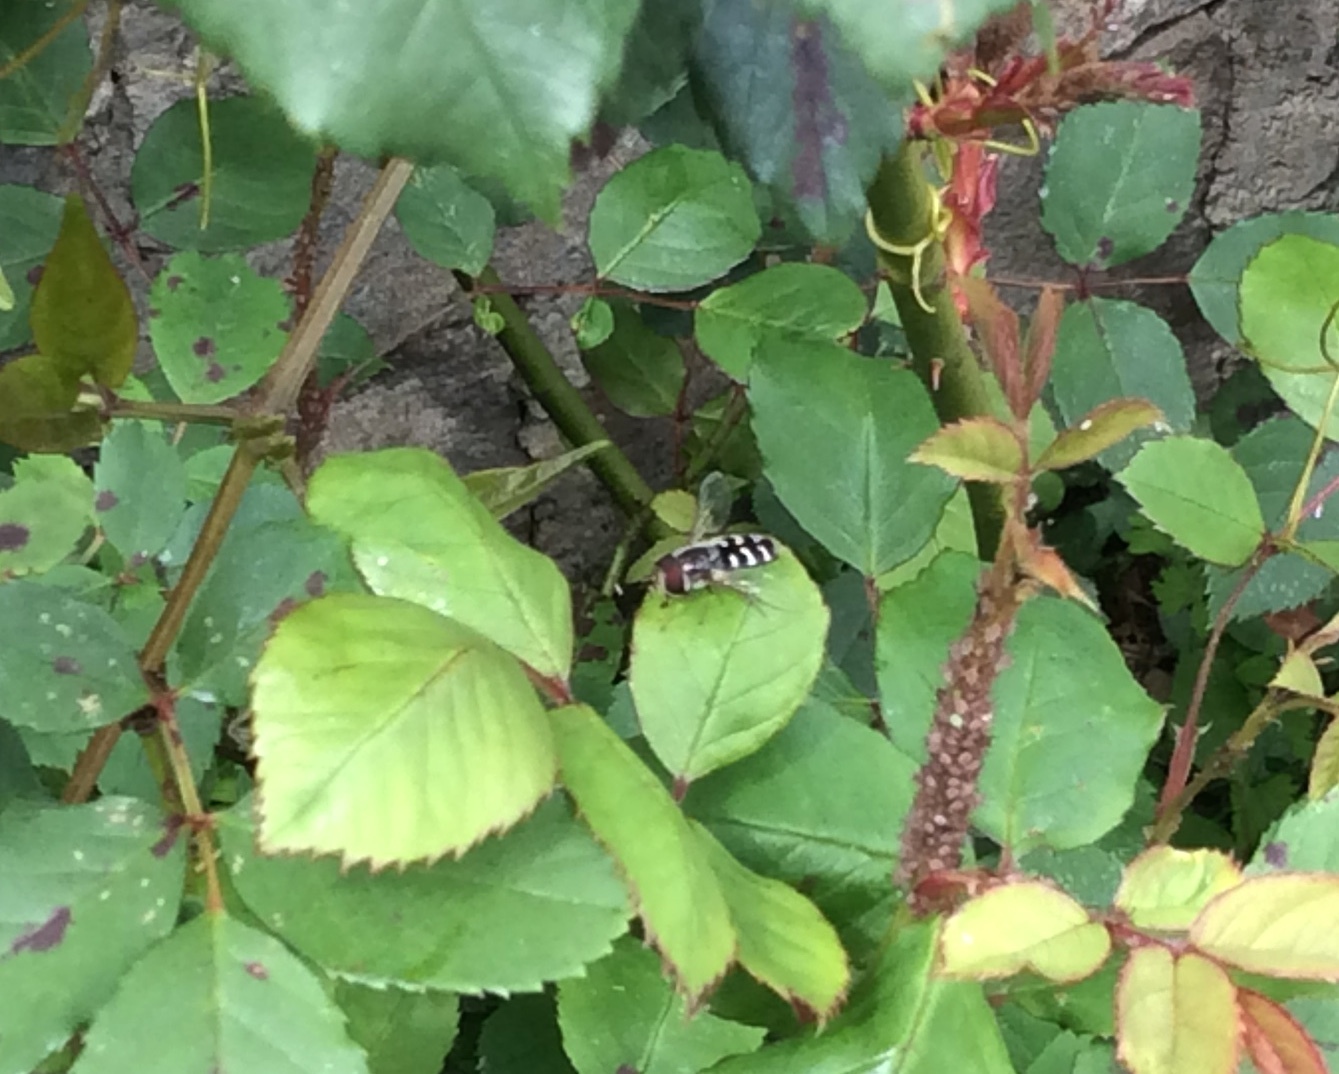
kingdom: Animalia
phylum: Arthropoda
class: Insecta
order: Diptera
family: Syrphidae
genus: Scaeva
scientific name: Scaeva affinis
